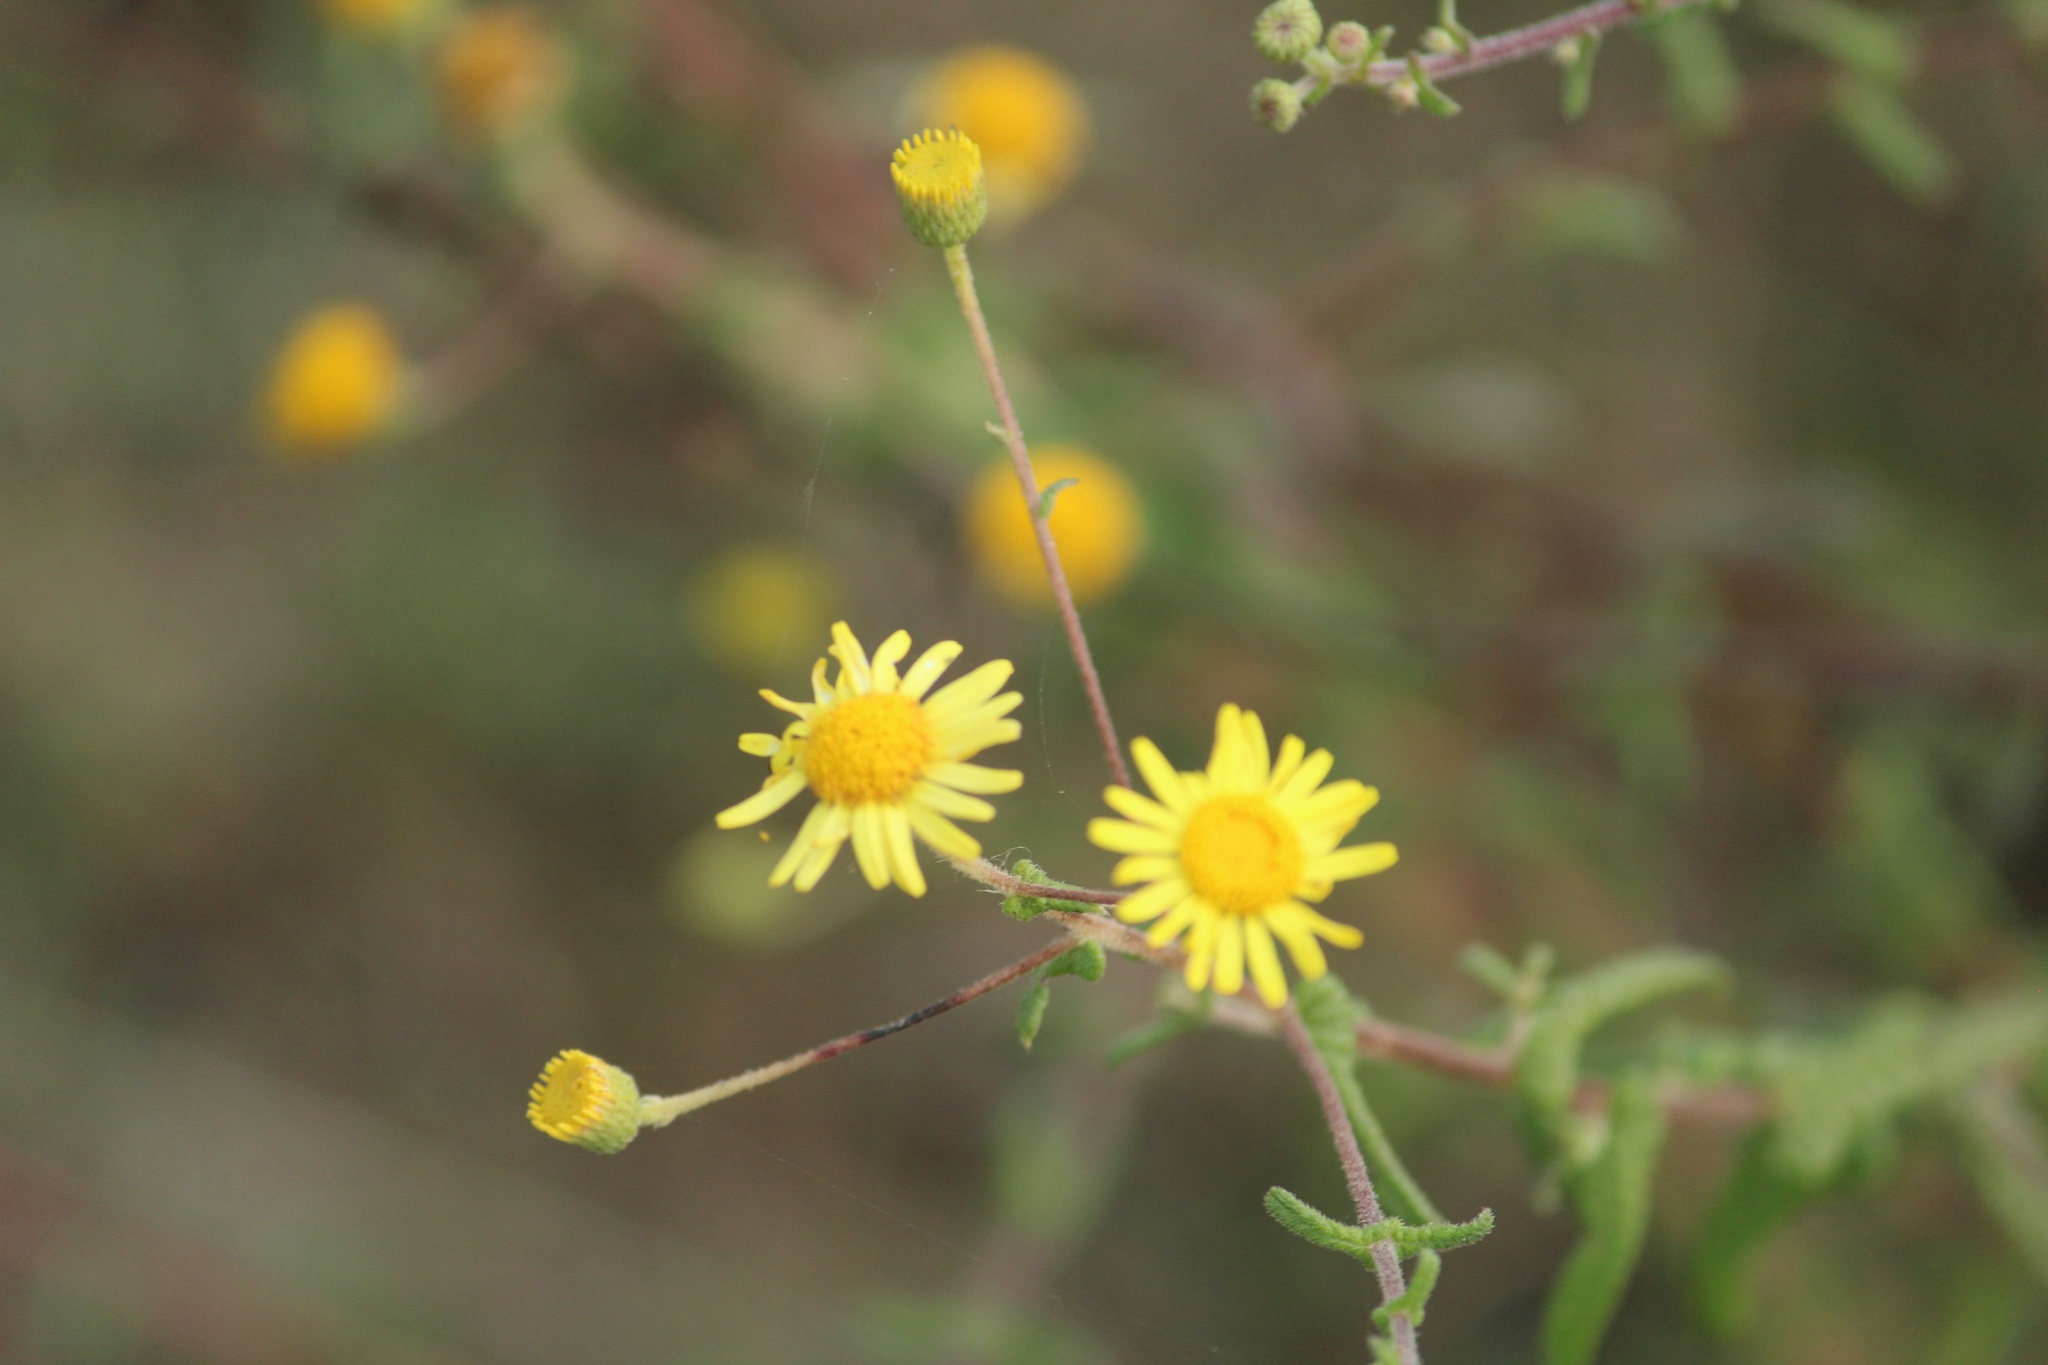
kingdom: Plantae
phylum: Tracheophyta
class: Magnoliopsida
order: Asterales
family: Asteraceae
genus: Vicoa
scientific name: Vicoa indica
